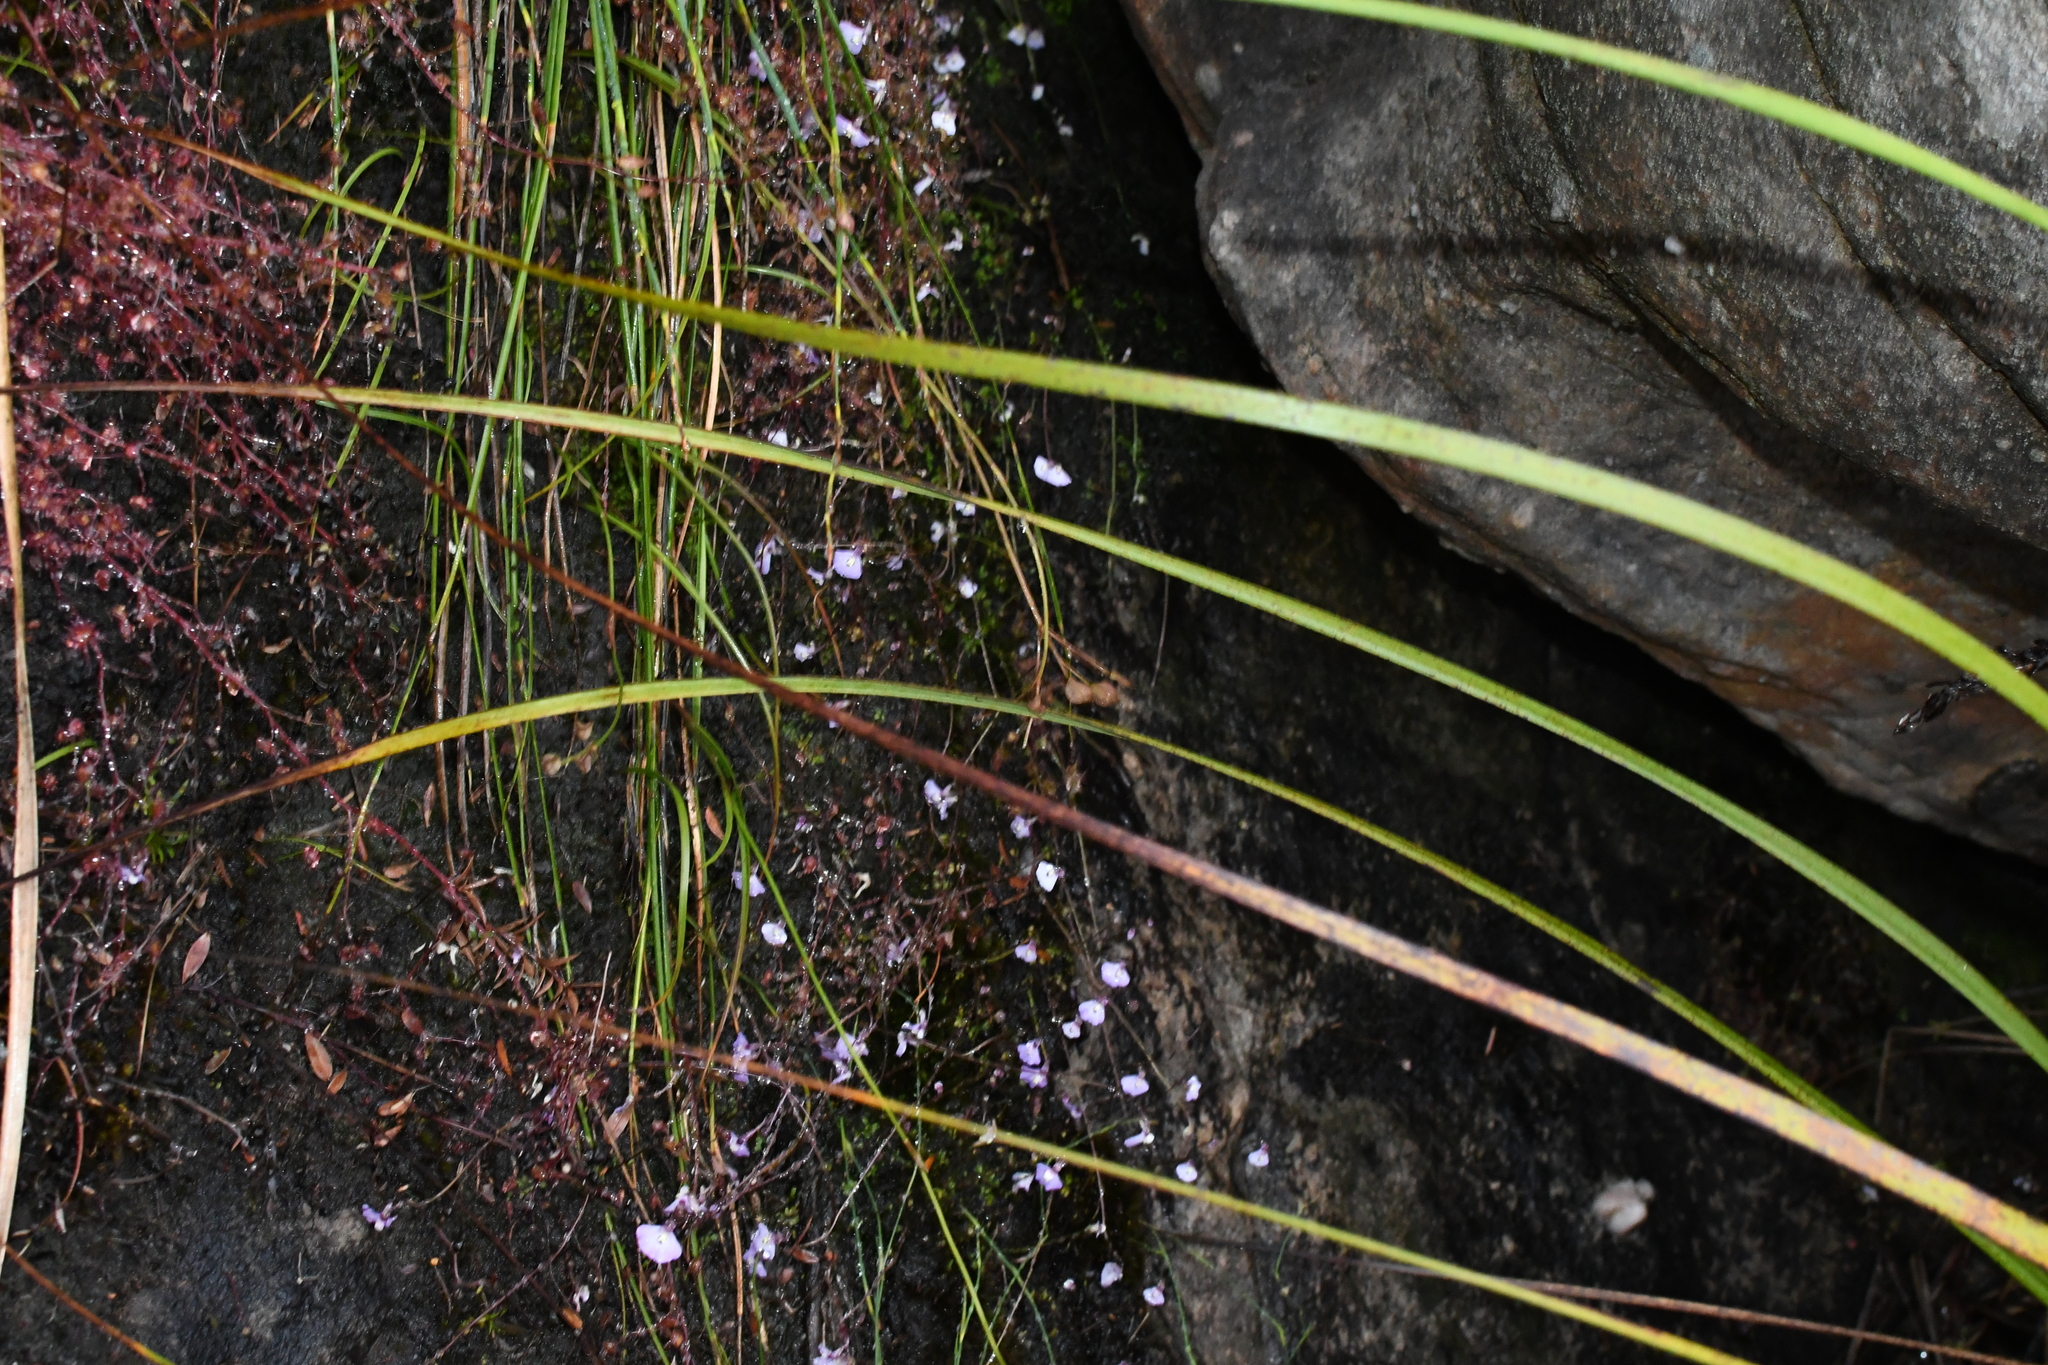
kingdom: Plantae
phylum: Tracheophyta
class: Magnoliopsida
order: Lamiales
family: Lentibulariaceae
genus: Utricularia
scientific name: Utricularia grampiana
